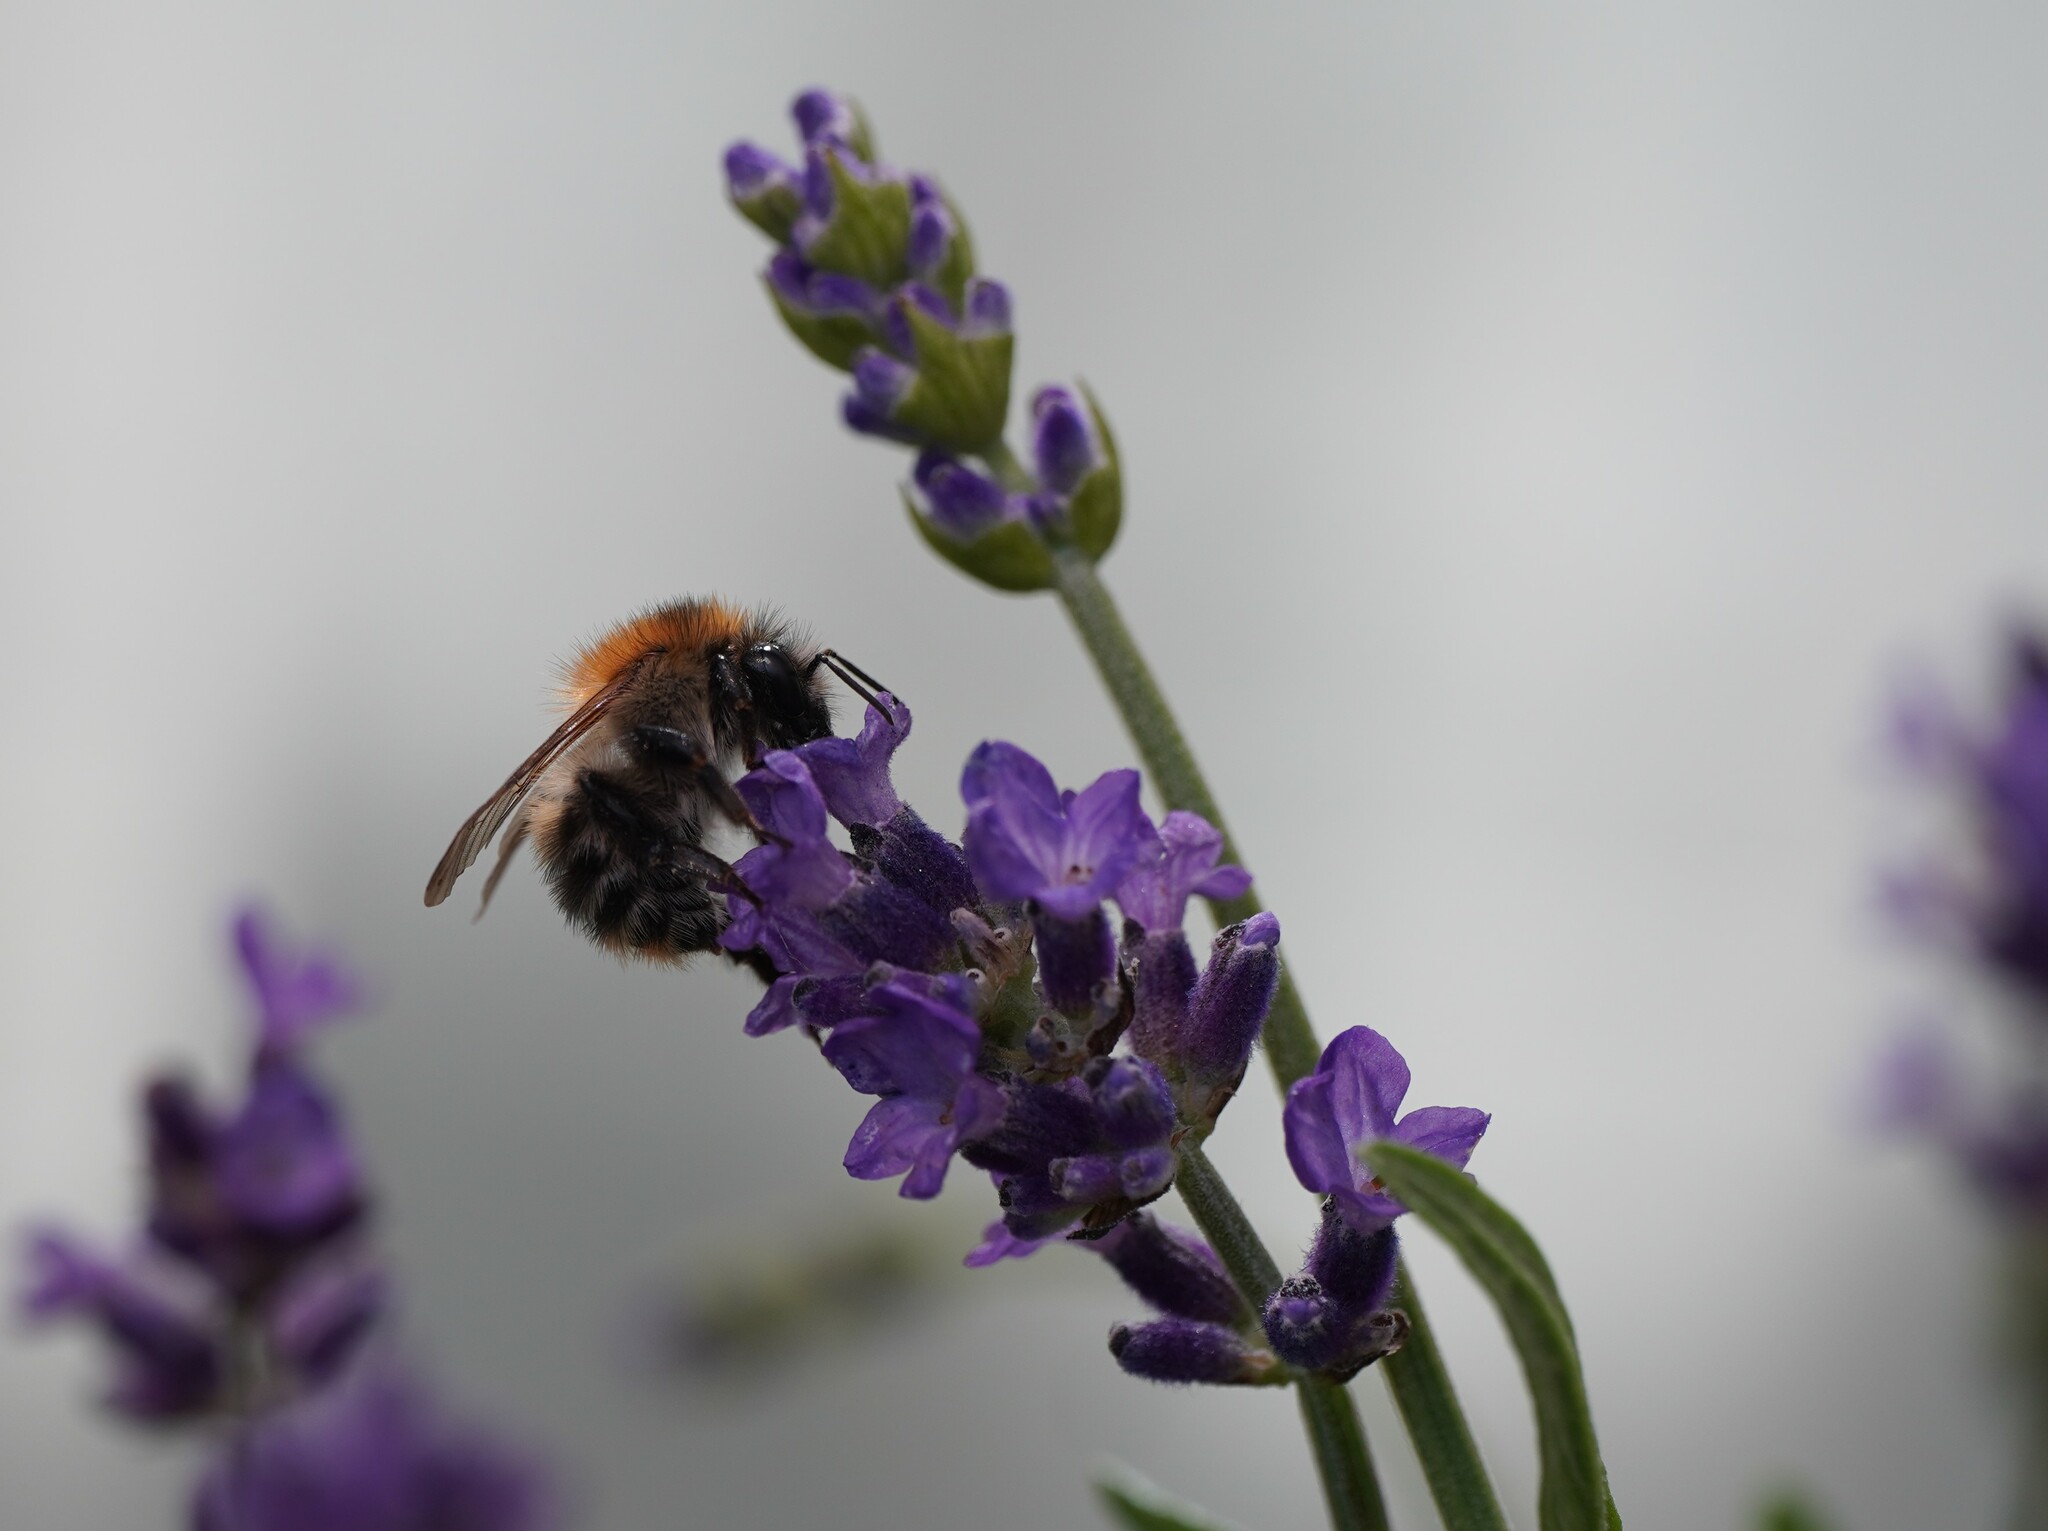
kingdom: Animalia
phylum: Arthropoda
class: Insecta
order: Hymenoptera
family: Apidae
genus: Bombus
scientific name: Bombus pascuorum
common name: Common carder bee
